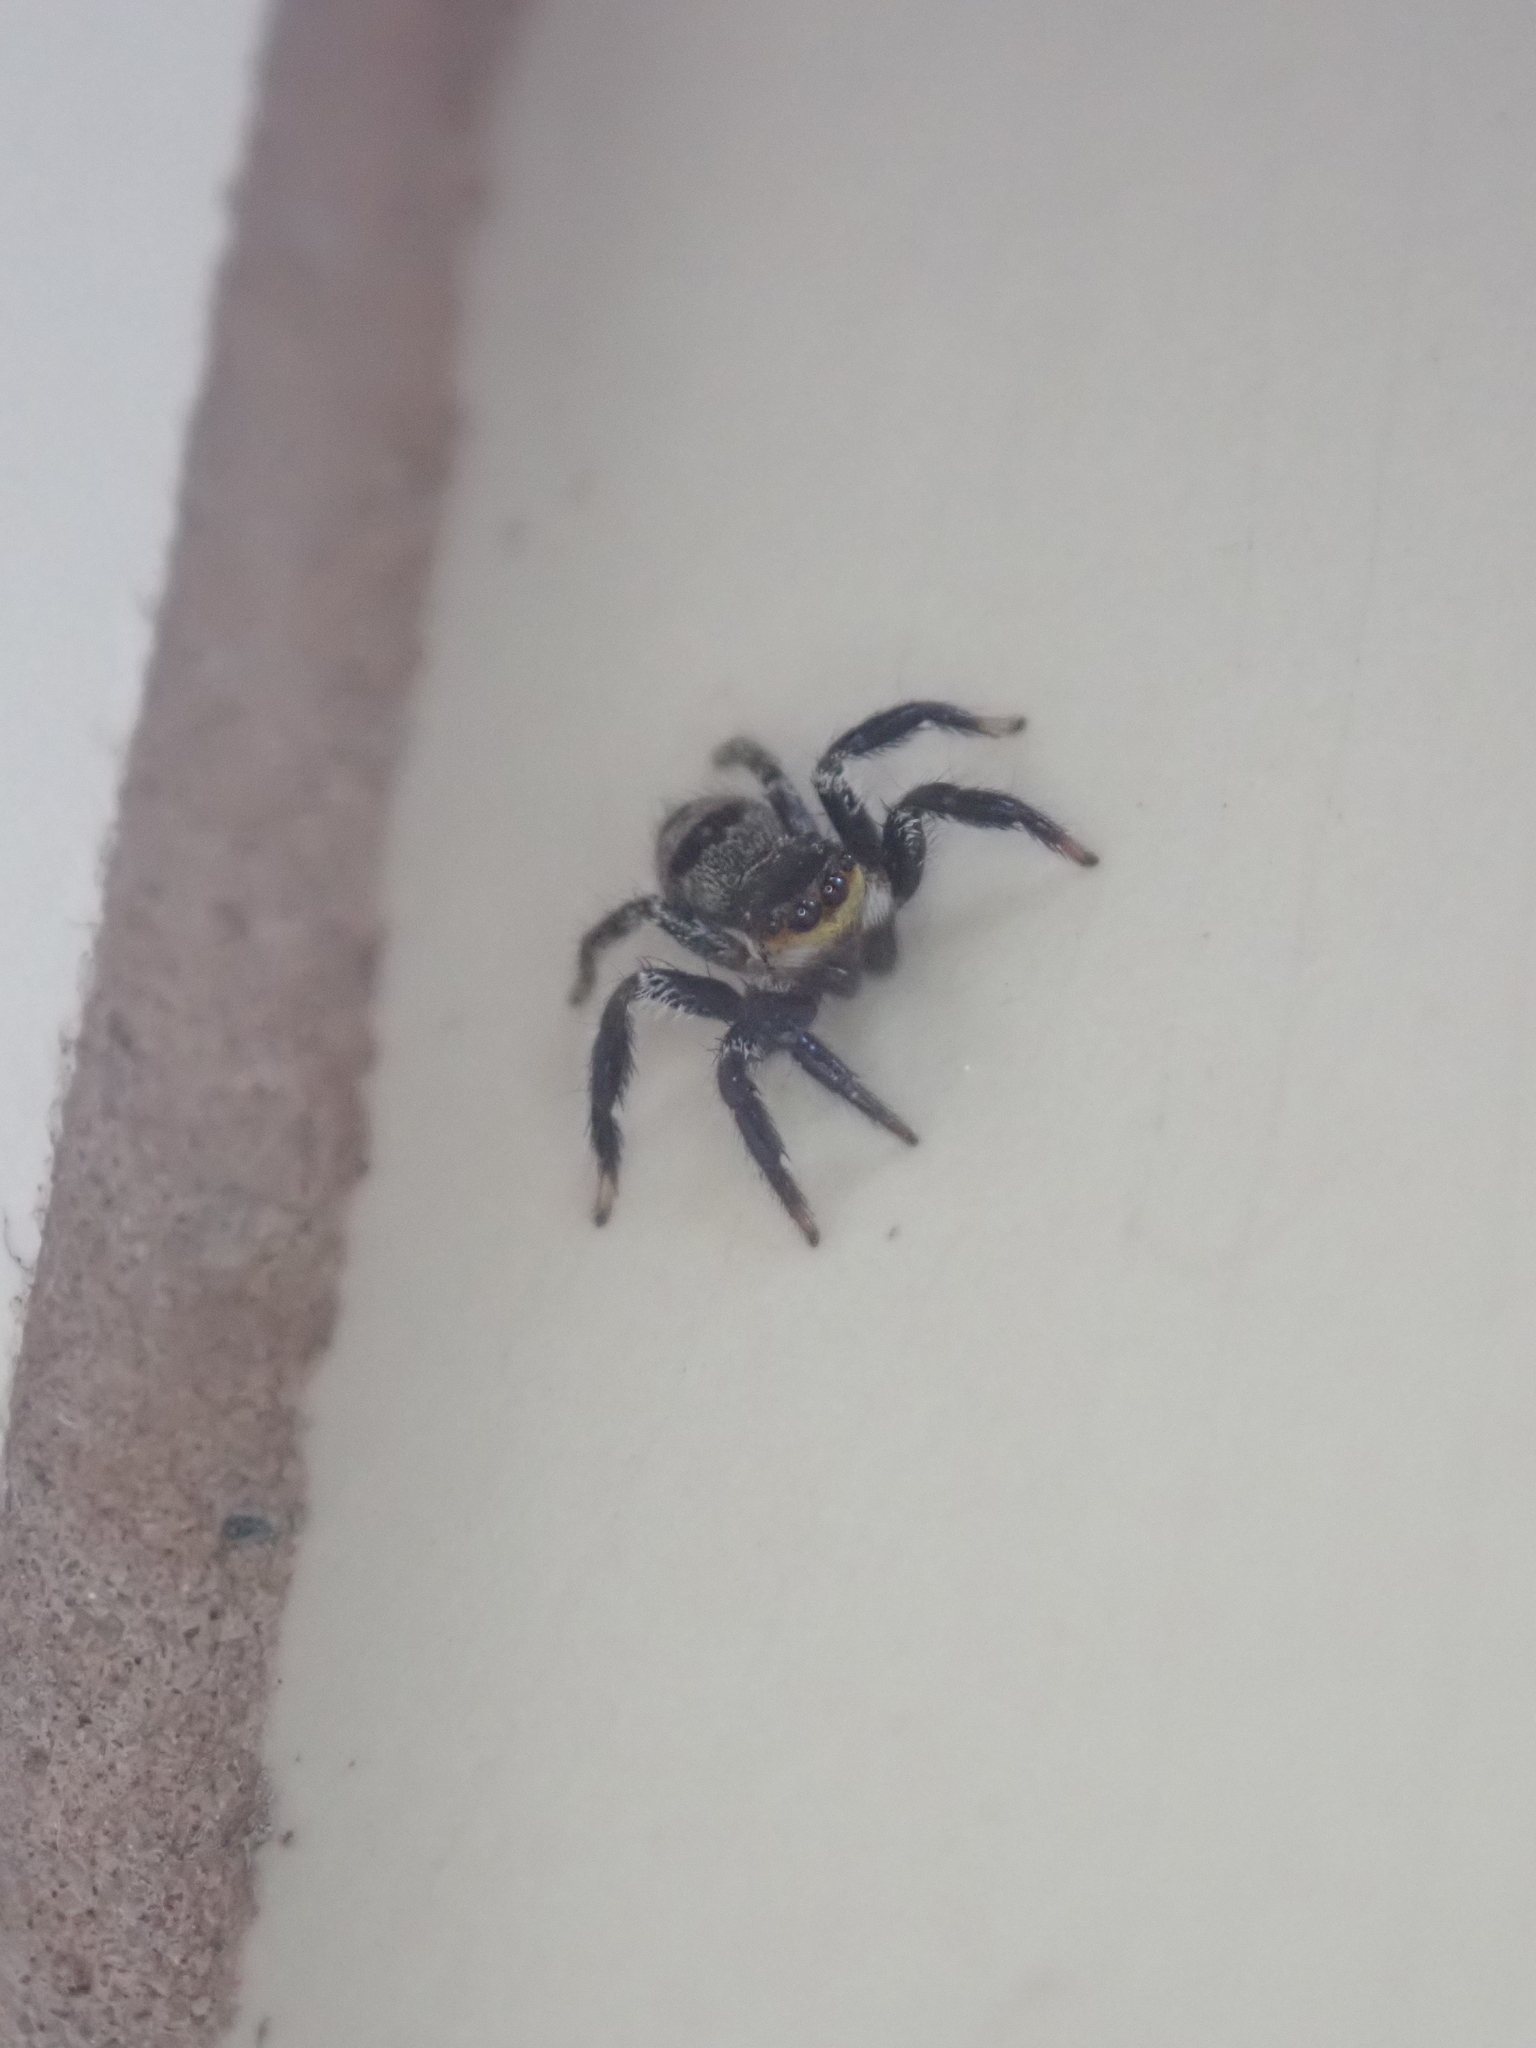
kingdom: Animalia
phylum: Arthropoda
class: Arachnida
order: Araneae
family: Salticidae
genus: Corythalia
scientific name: Corythalia conferta
